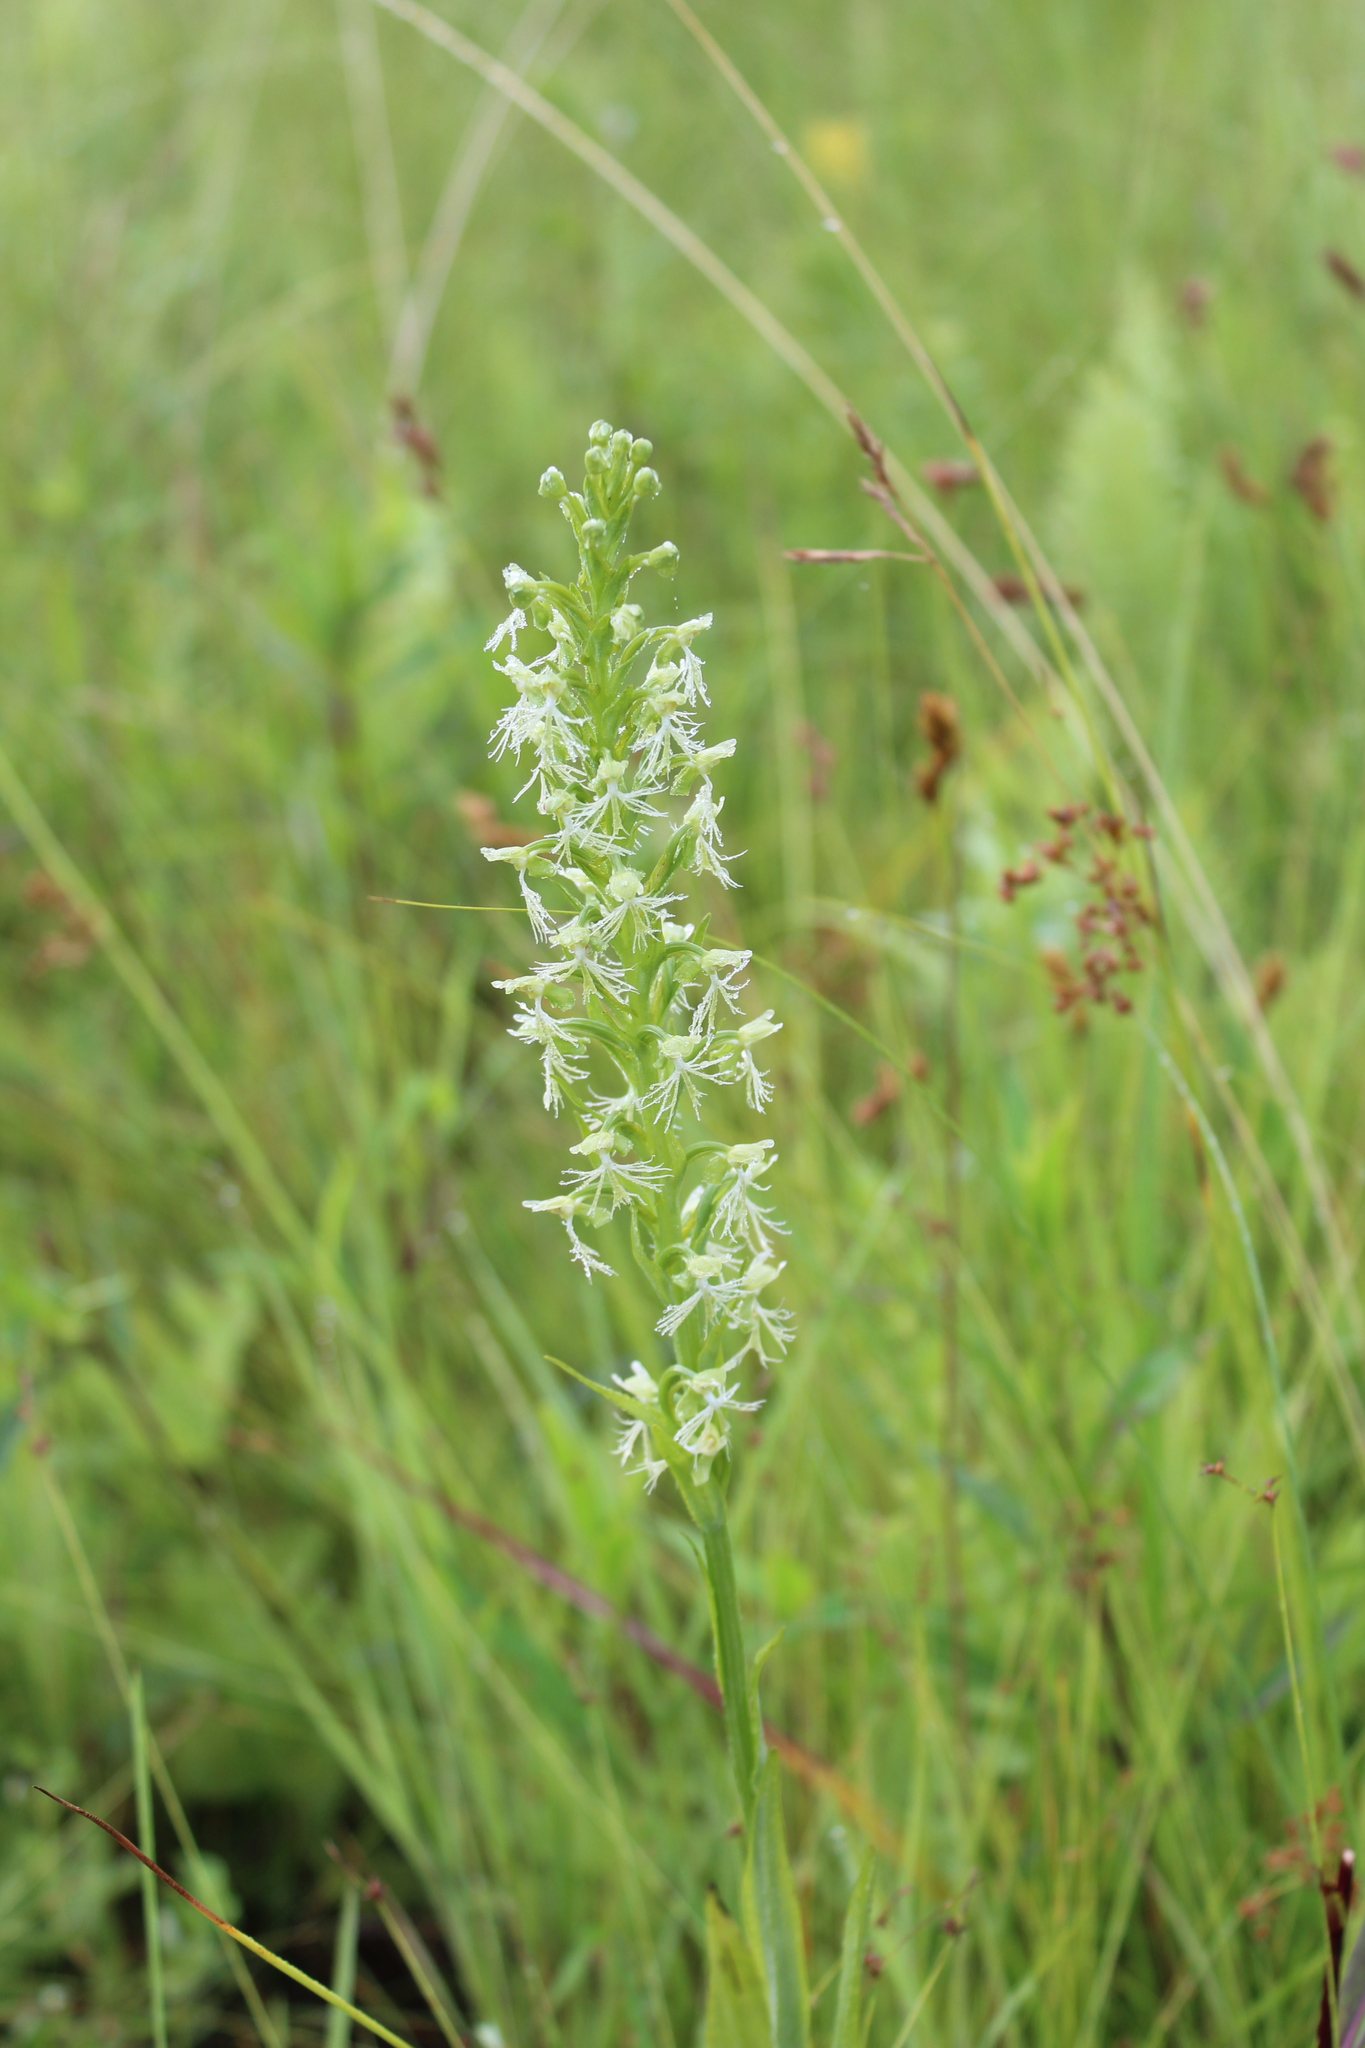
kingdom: Plantae
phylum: Tracheophyta
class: Liliopsida
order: Asparagales
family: Orchidaceae
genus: Platanthera
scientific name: Platanthera lacera
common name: Green fringed orchid
